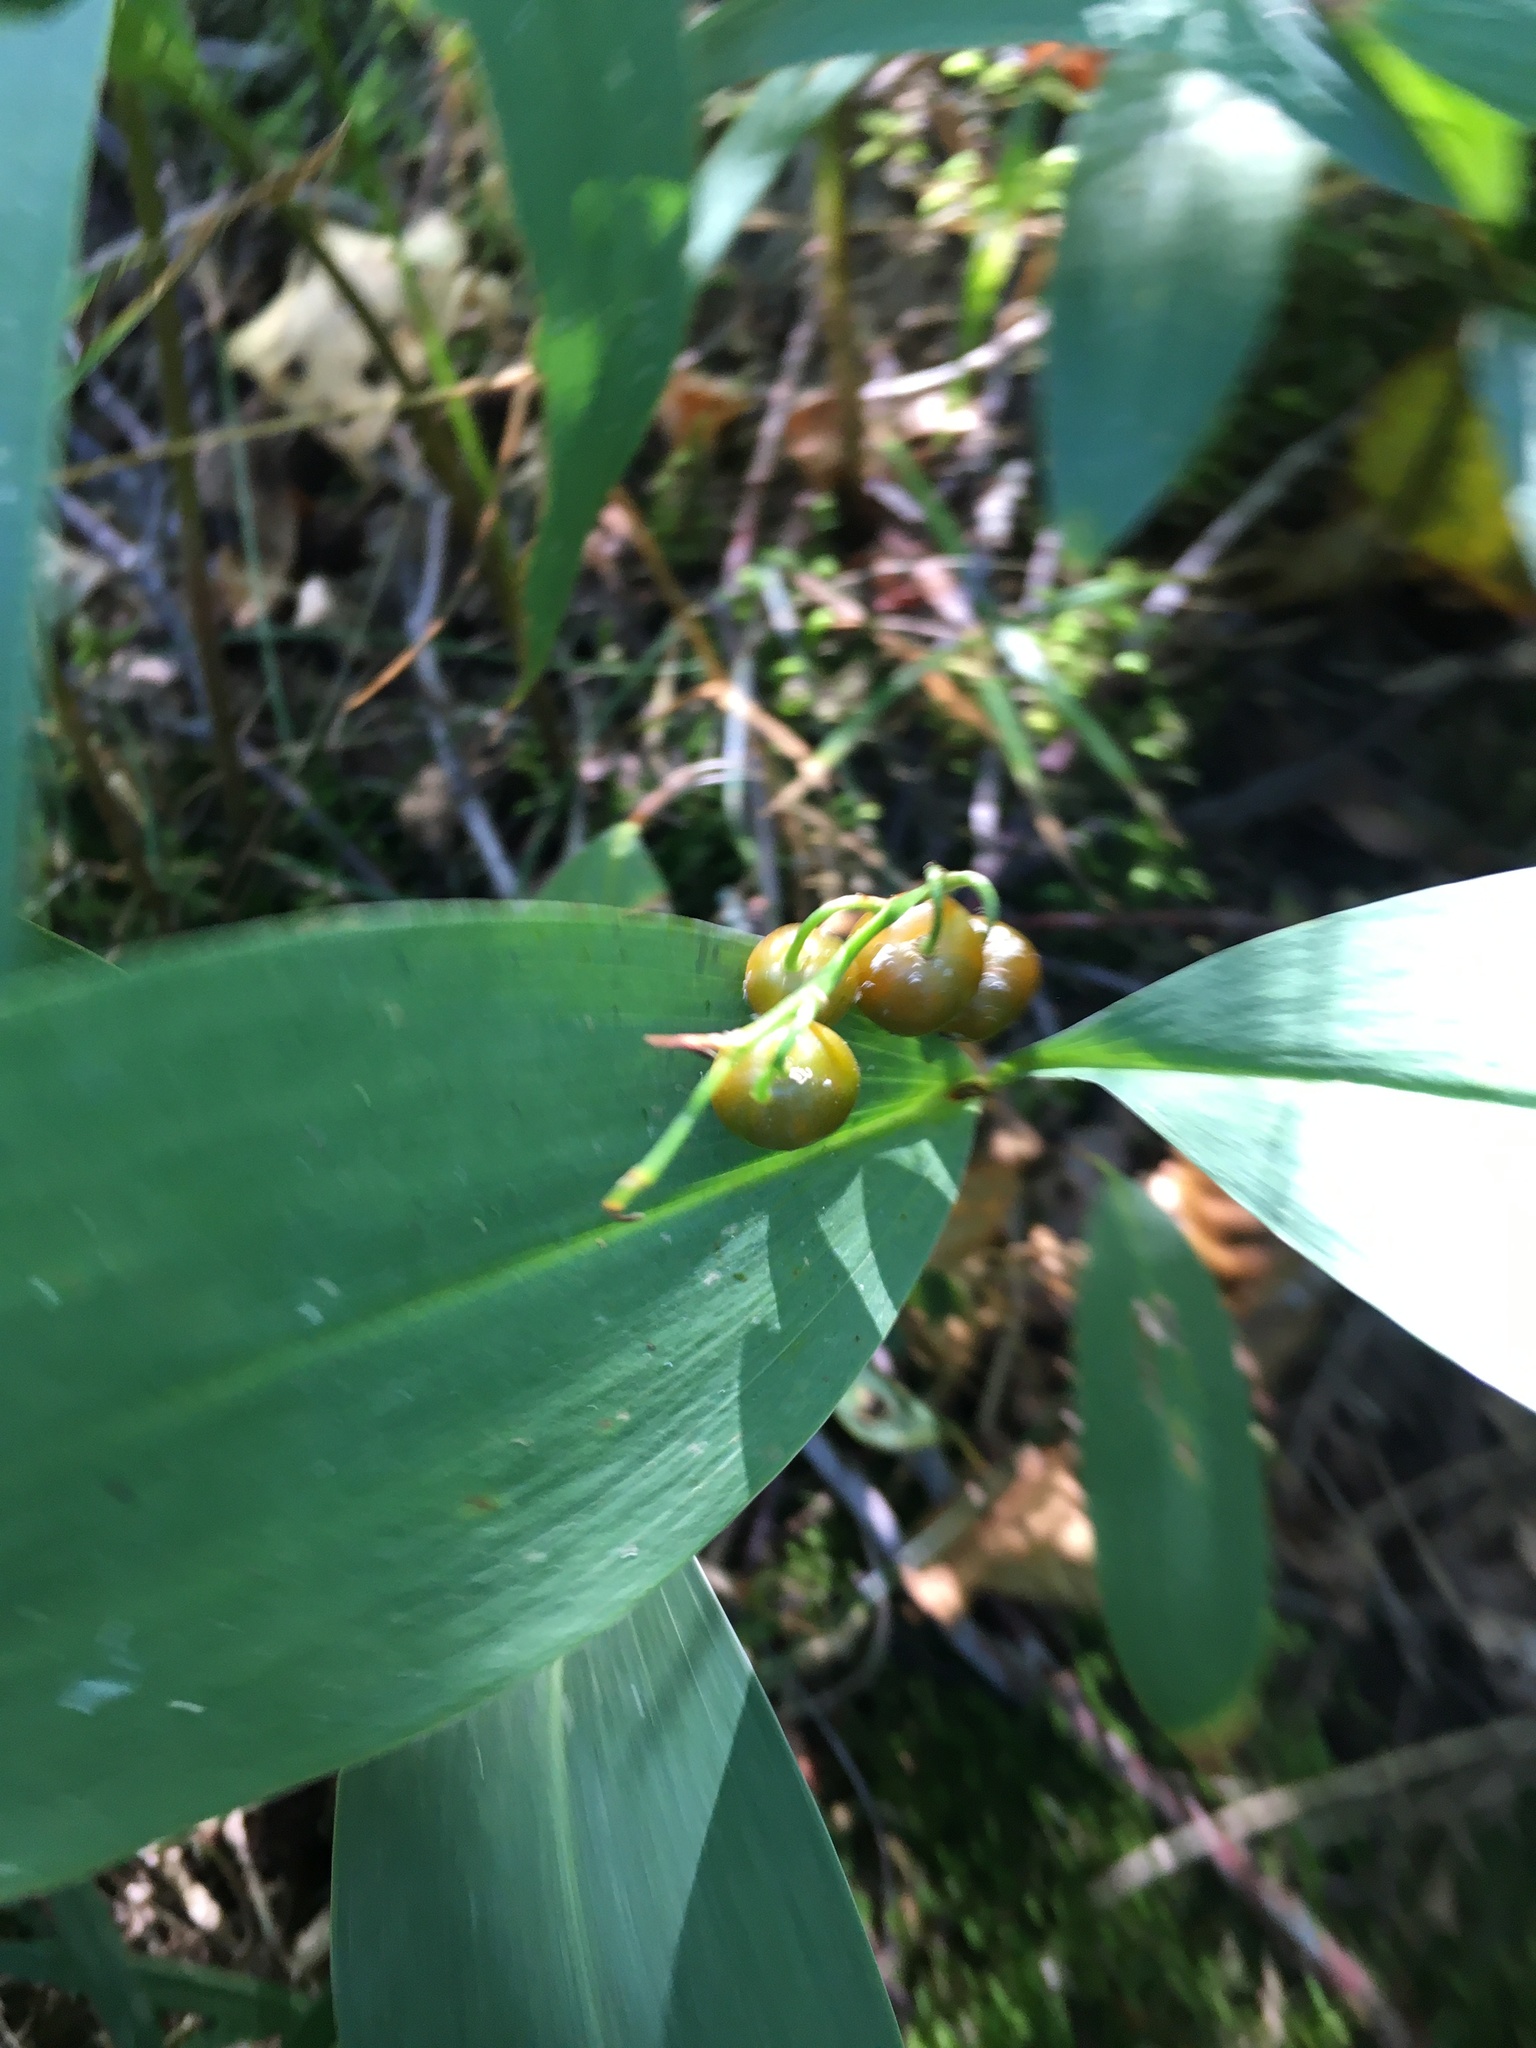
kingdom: Plantae
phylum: Tracheophyta
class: Liliopsida
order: Asparagales
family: Asparagaceae
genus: Convallaria
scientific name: Convallaria majalis
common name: Lily-of-the-valley
